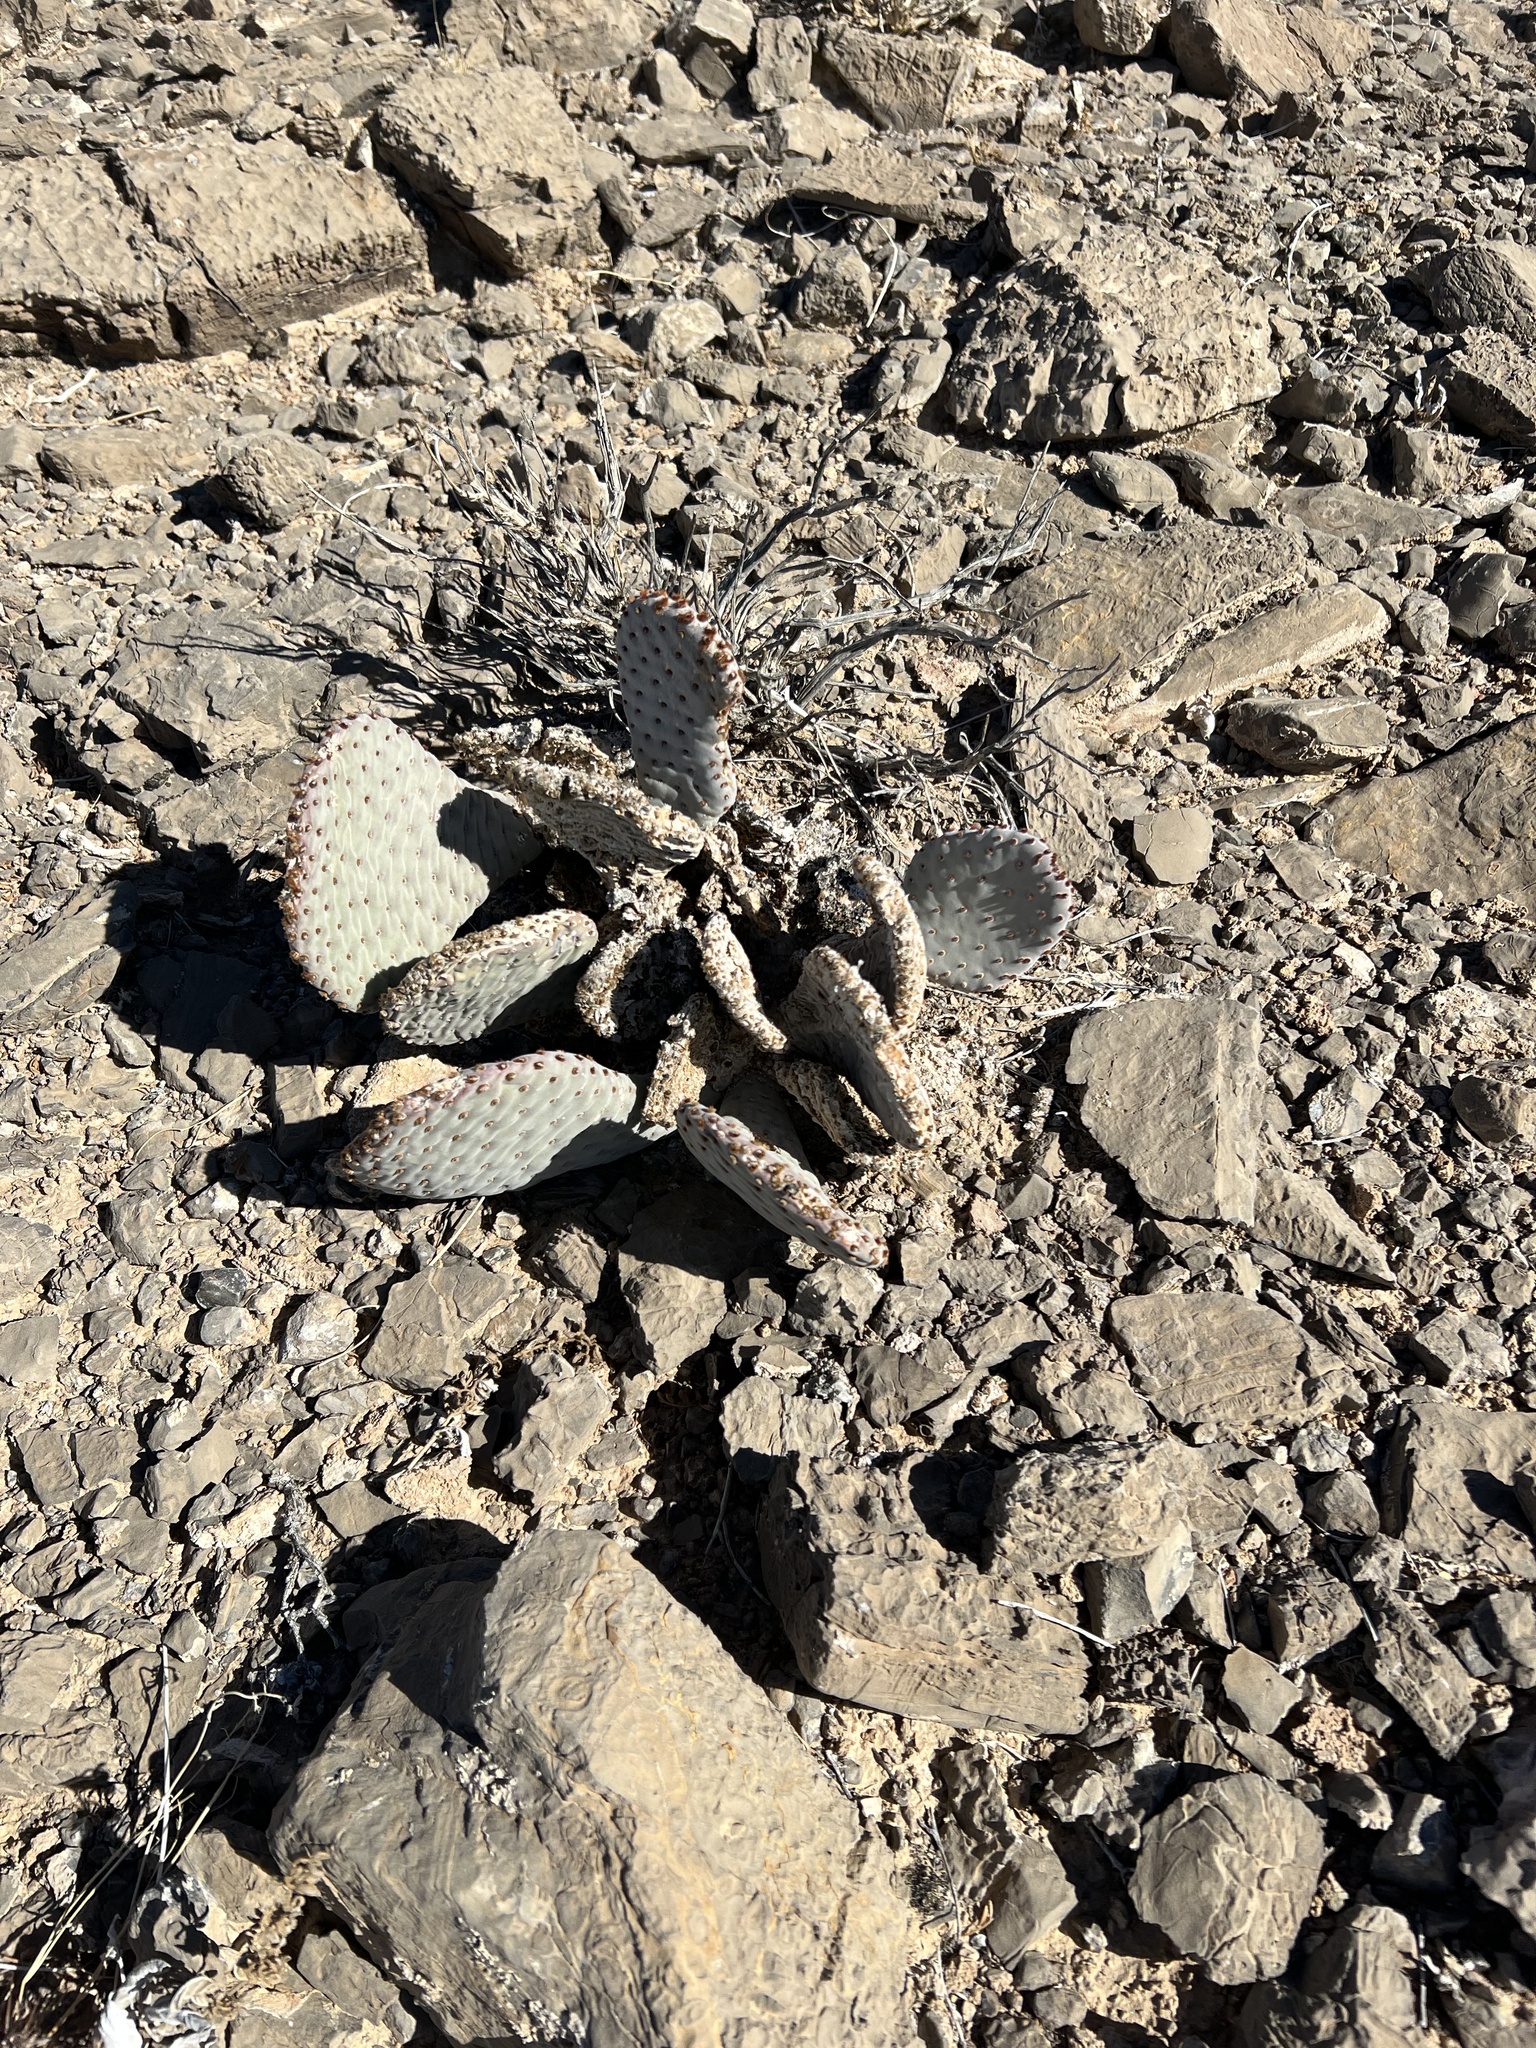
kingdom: Plantae
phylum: Tracheophyta
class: Magnoliopsida
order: Caryophyllales
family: Cactaceae
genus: Opuntia
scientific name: Opuntia basilaris
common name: Beavertail prickly-pear
